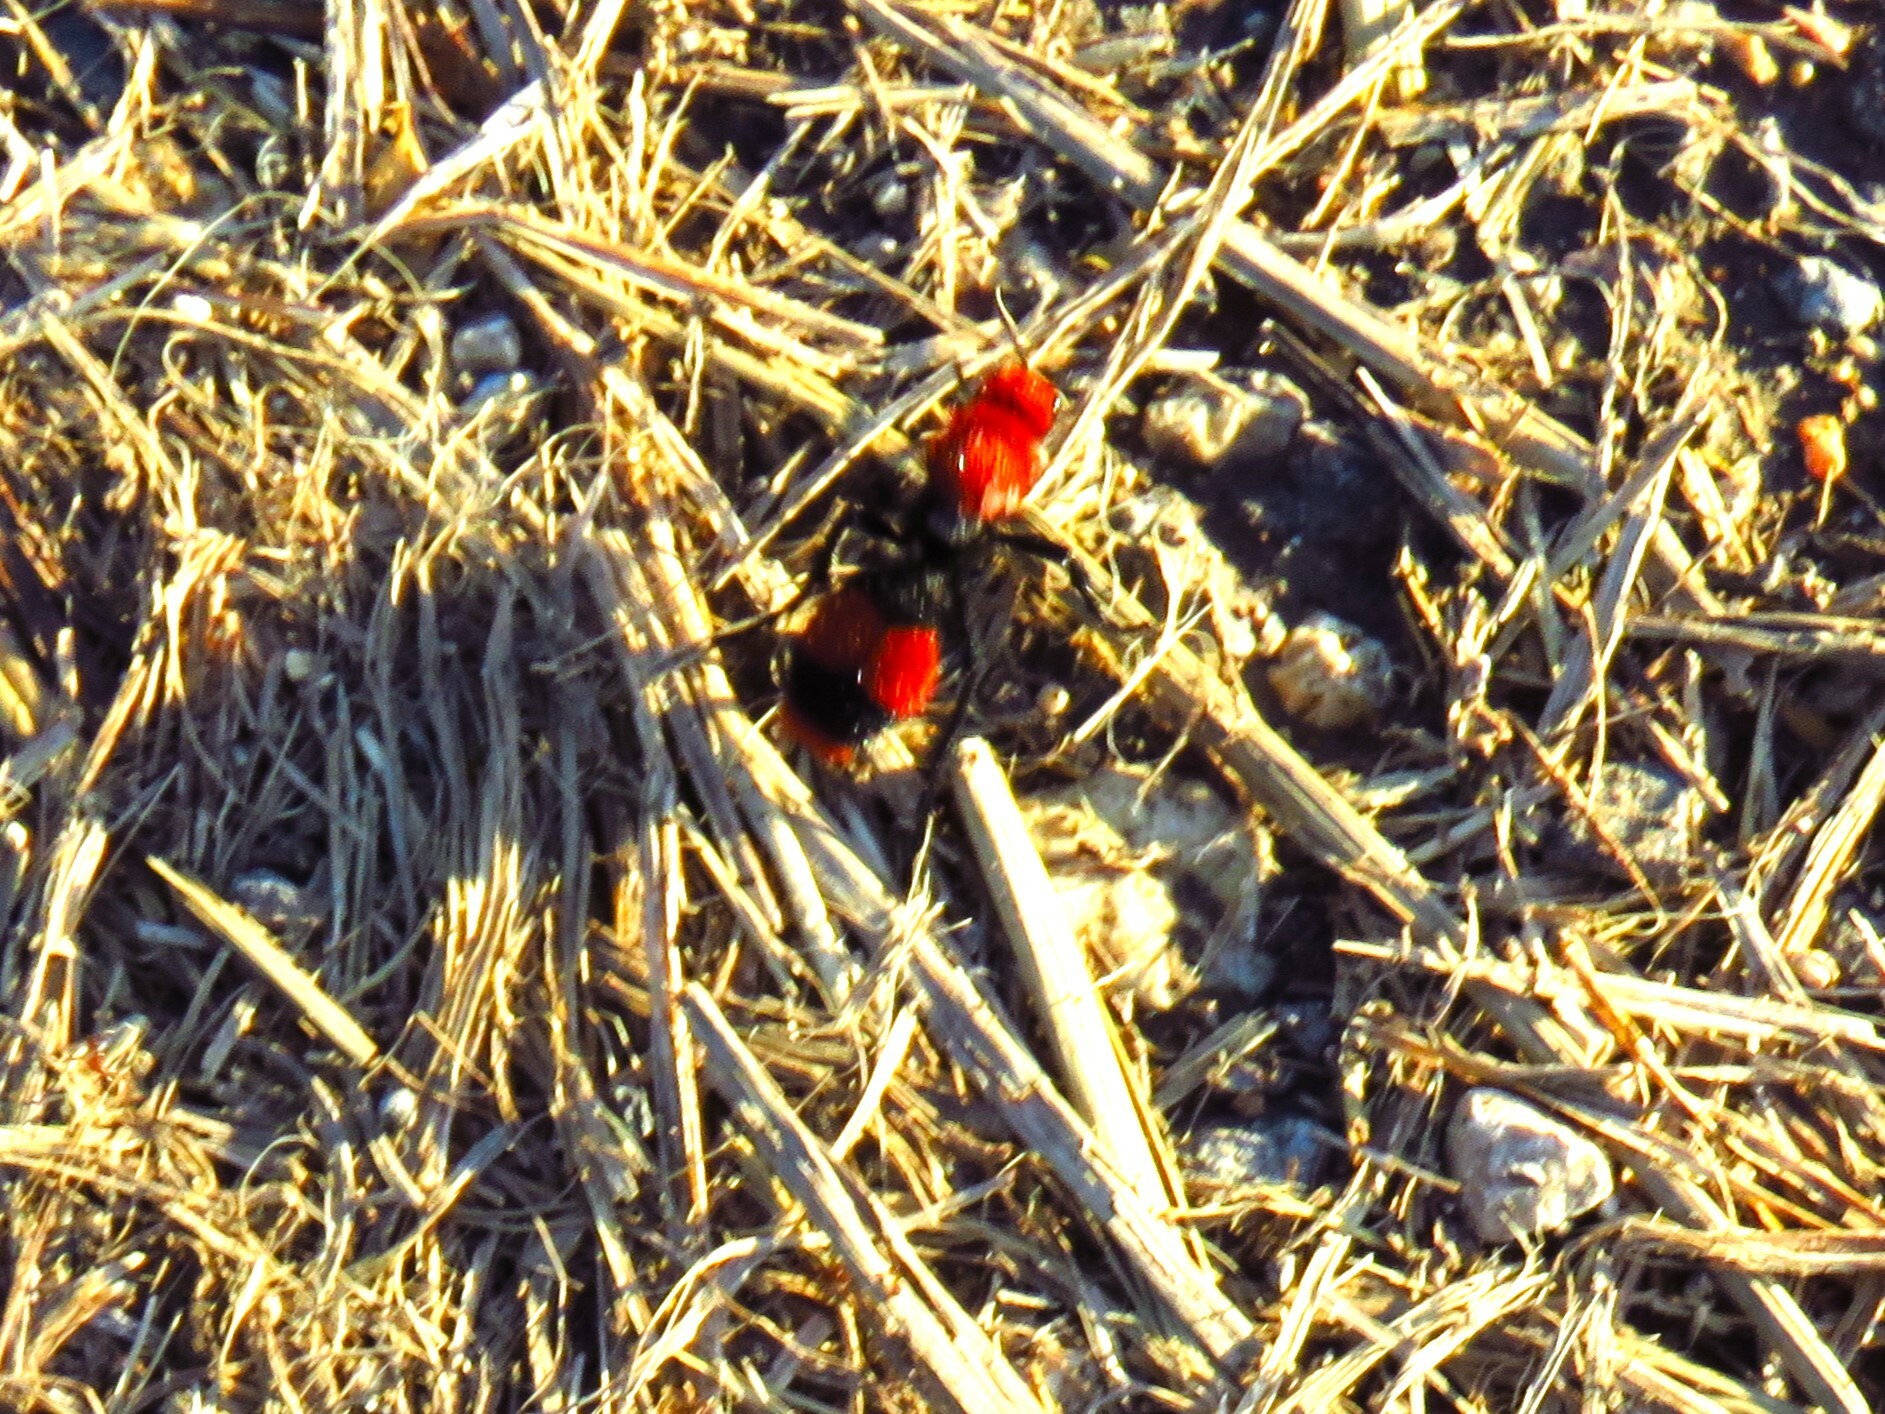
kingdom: Animalia
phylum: Arthropoda
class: Insecta
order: Hymenoptera
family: Mutillidae
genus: Dasymutilla
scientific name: Dasymutilla occidentalis
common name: Common eastern velvet ant
